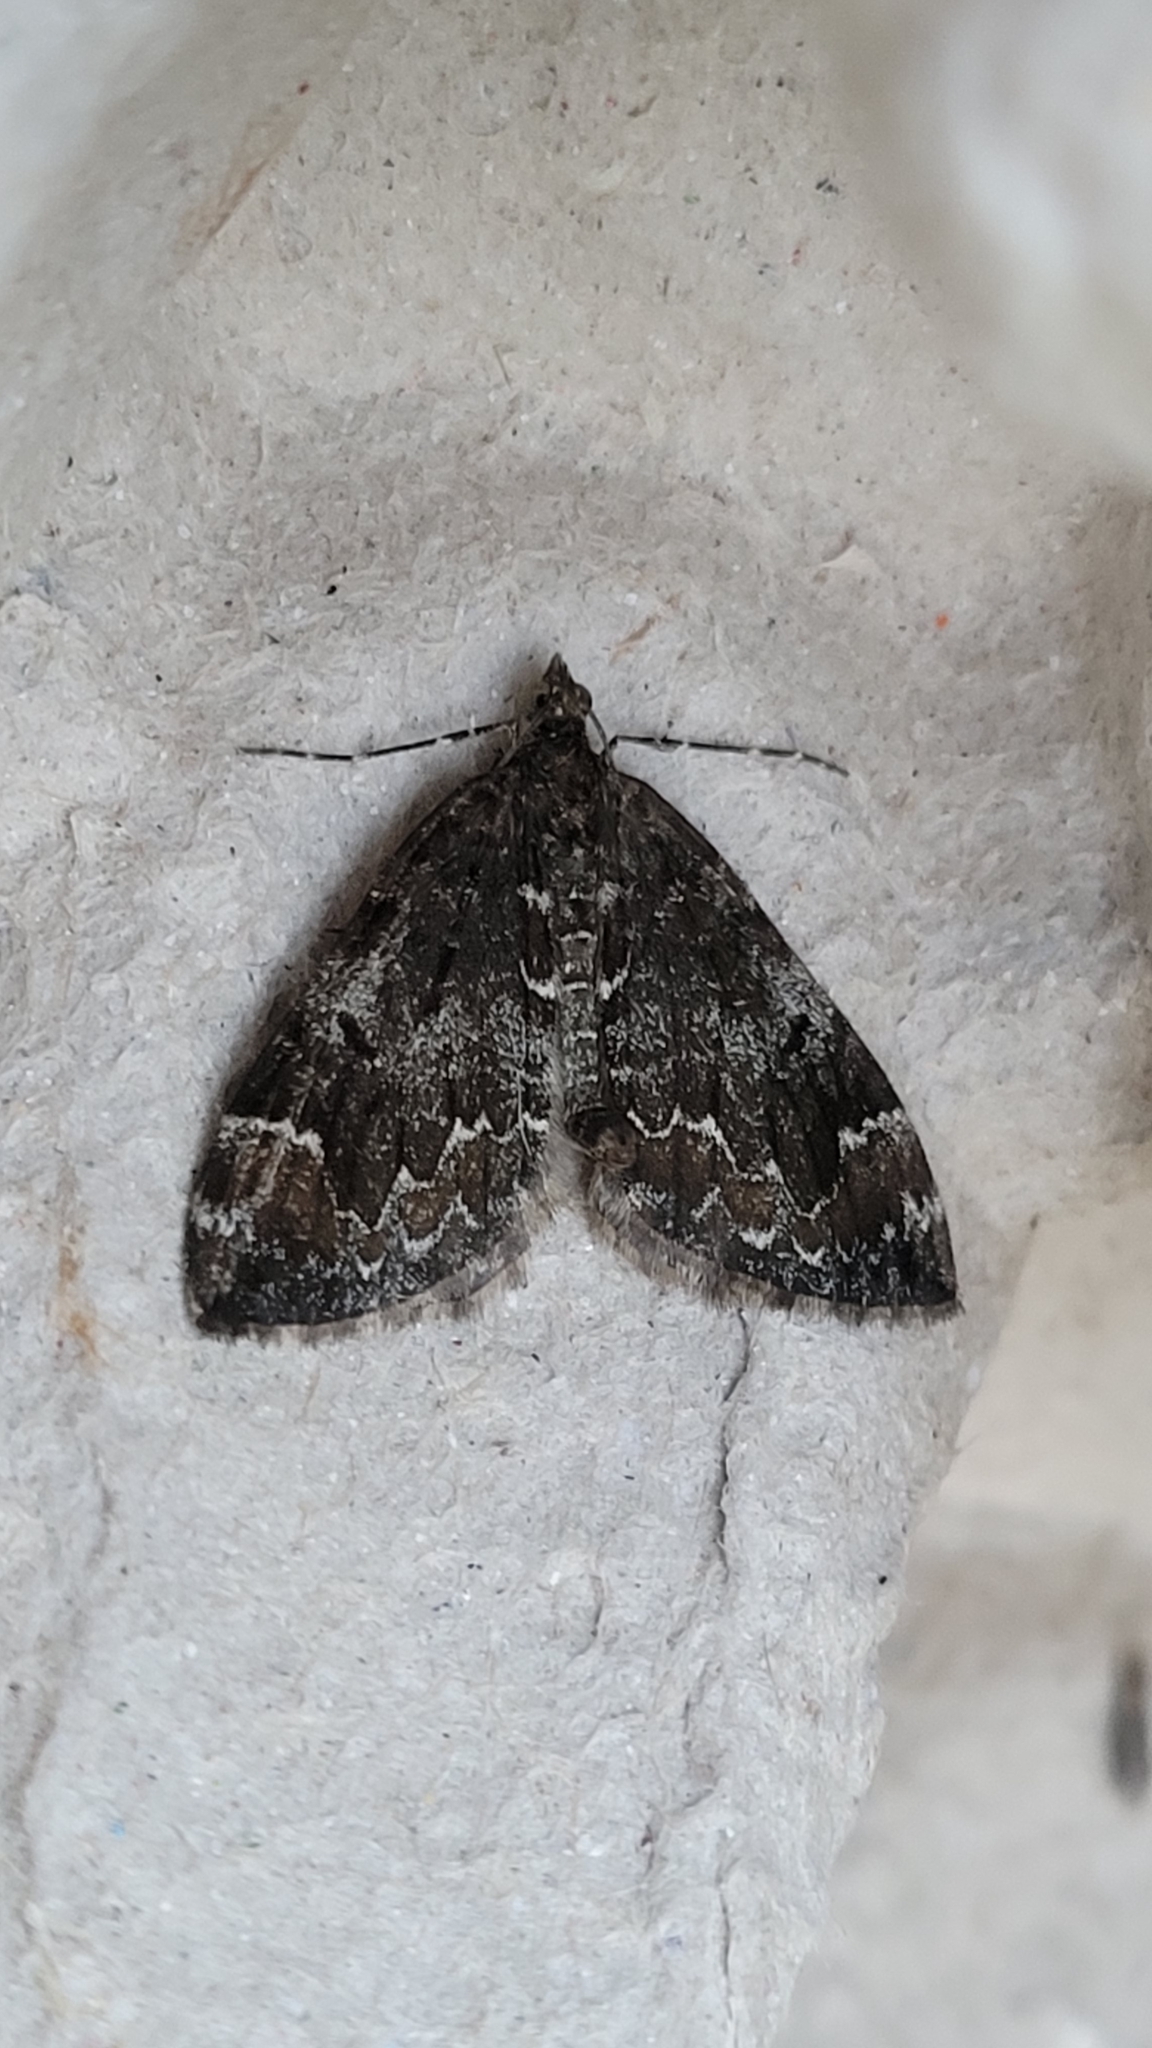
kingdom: Animalia
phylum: Arthropoda
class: Insecta
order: Lepidoptera
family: Geometridae
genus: Dysstroma
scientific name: Dysstroma truncata
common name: Common marbled carpet
